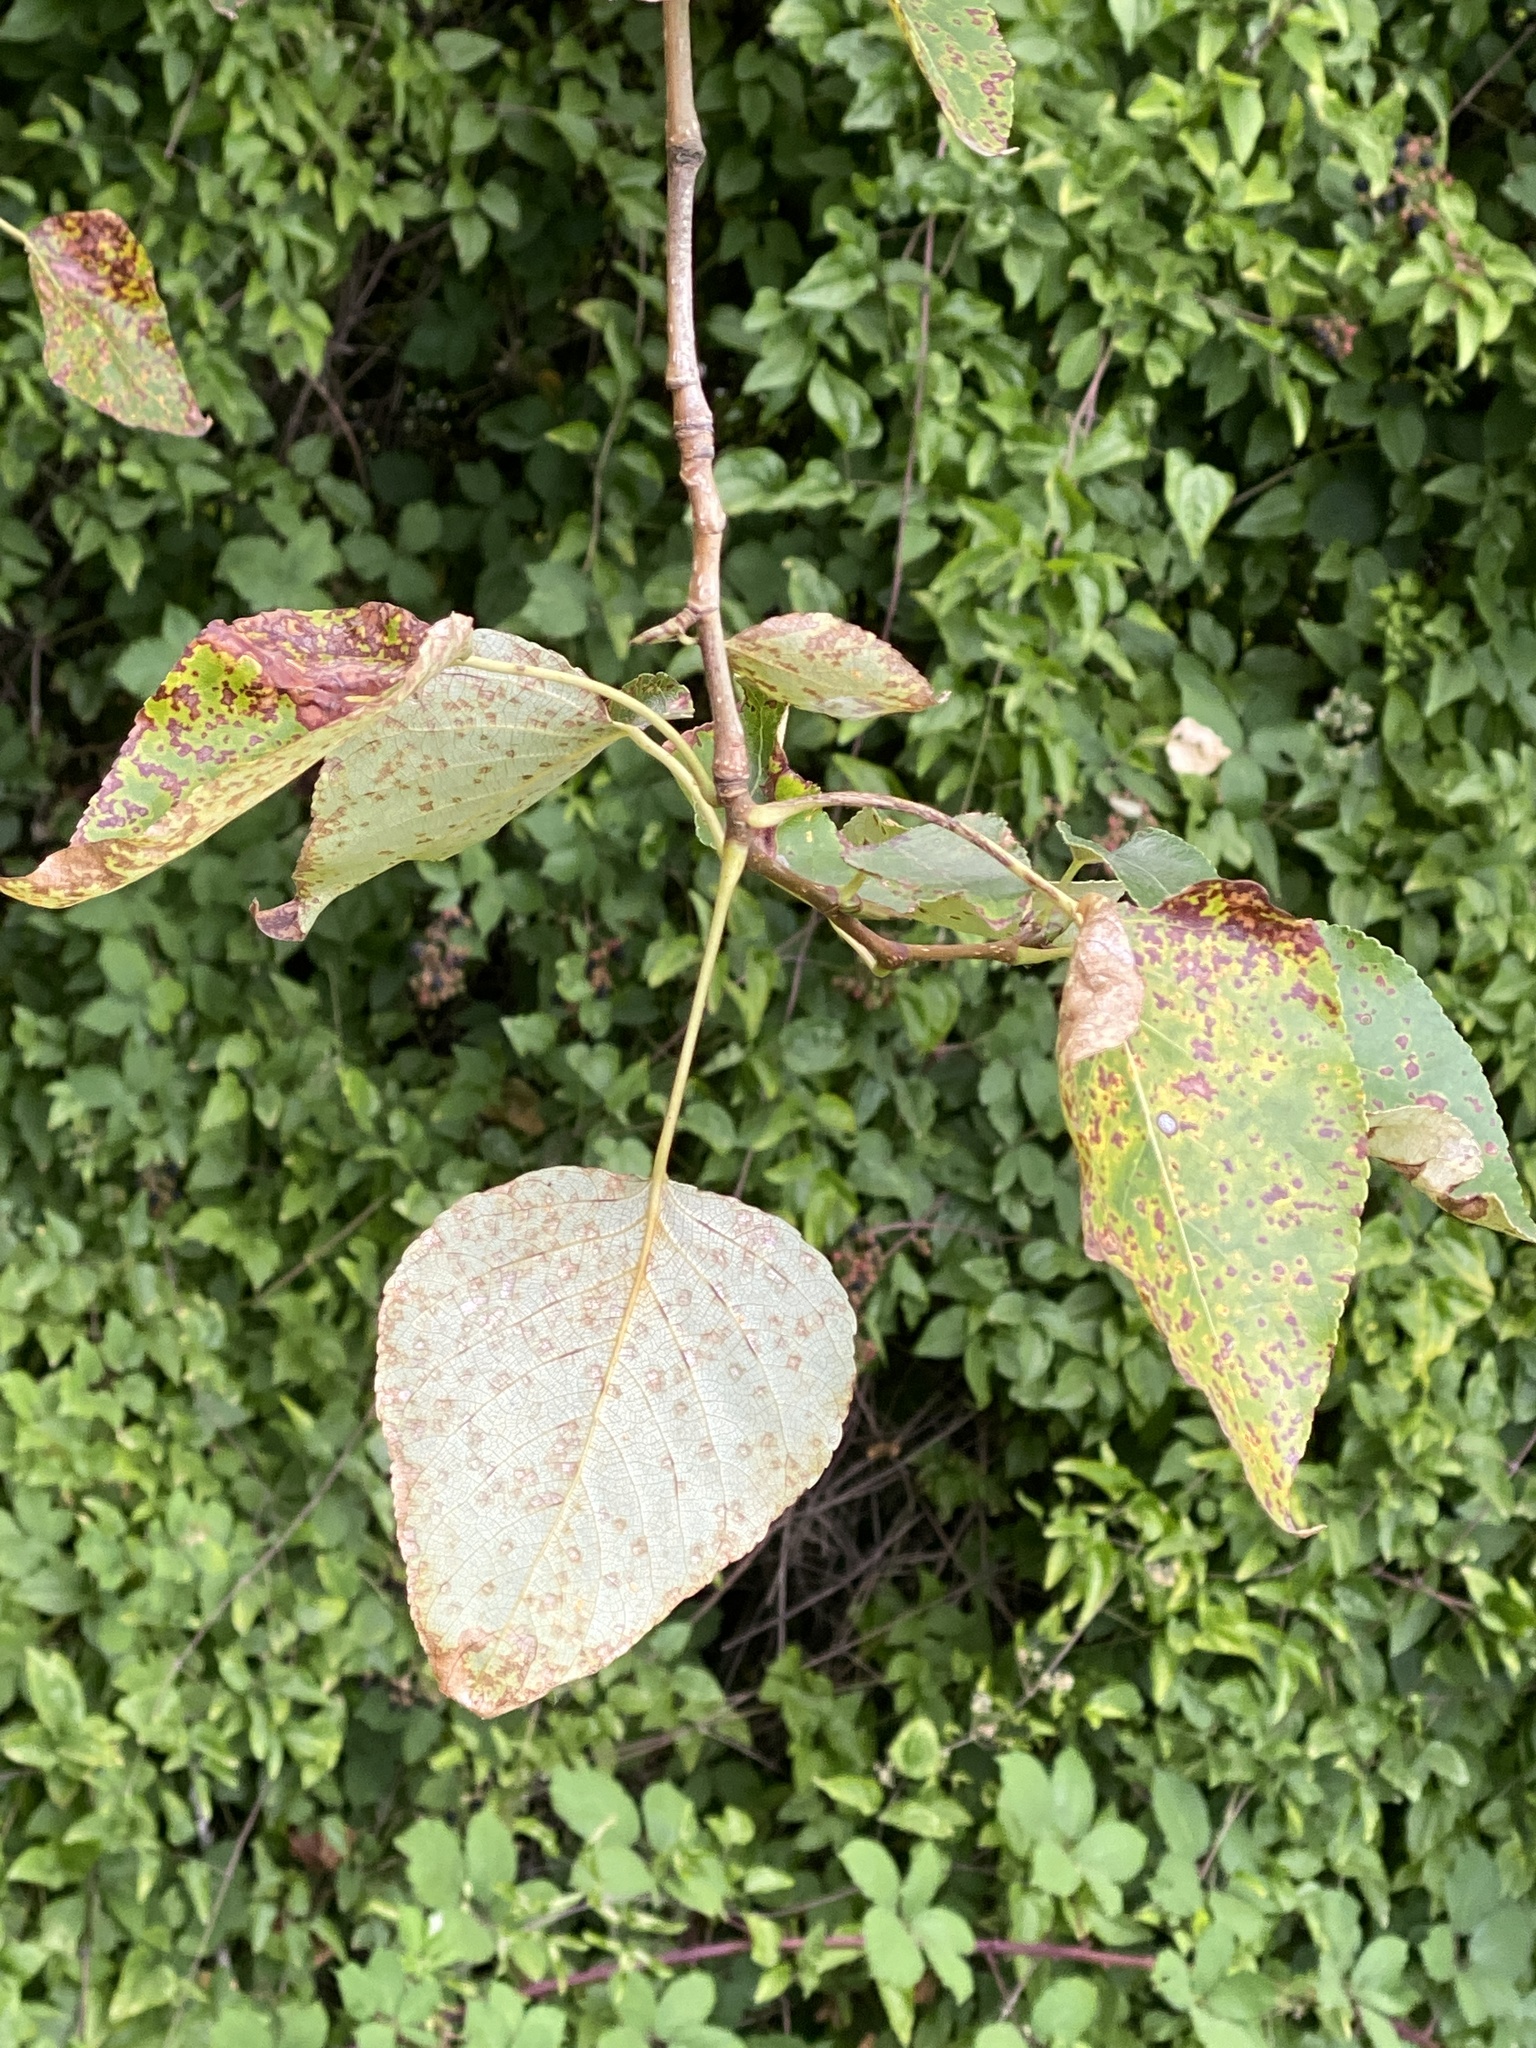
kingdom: Plantae
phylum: Tracheophyta
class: Magnoliopsida
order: Malpighiales
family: Salicaceae
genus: Populus
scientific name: Populus trichocarpa
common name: Black cottonwood
